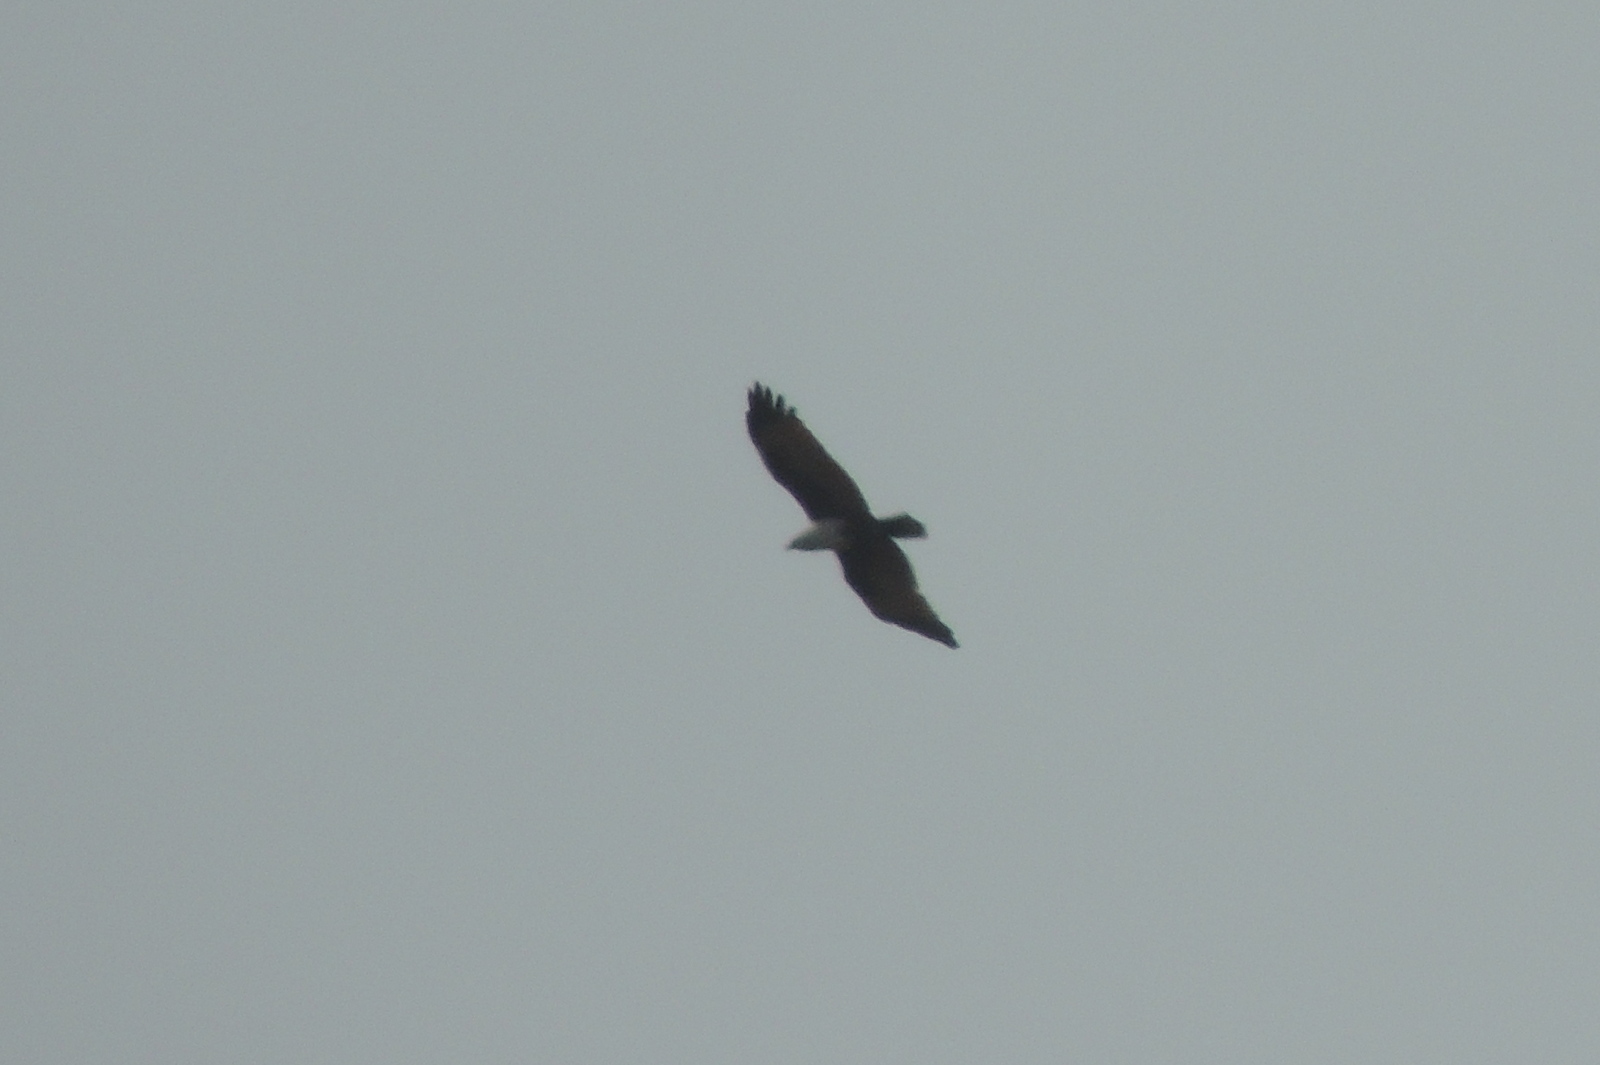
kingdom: Animalia
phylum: Chordata
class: Aves
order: Accipitriformes
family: Accipitridae
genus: Haliastur
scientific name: Haliastur indus
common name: Brahminy kite
